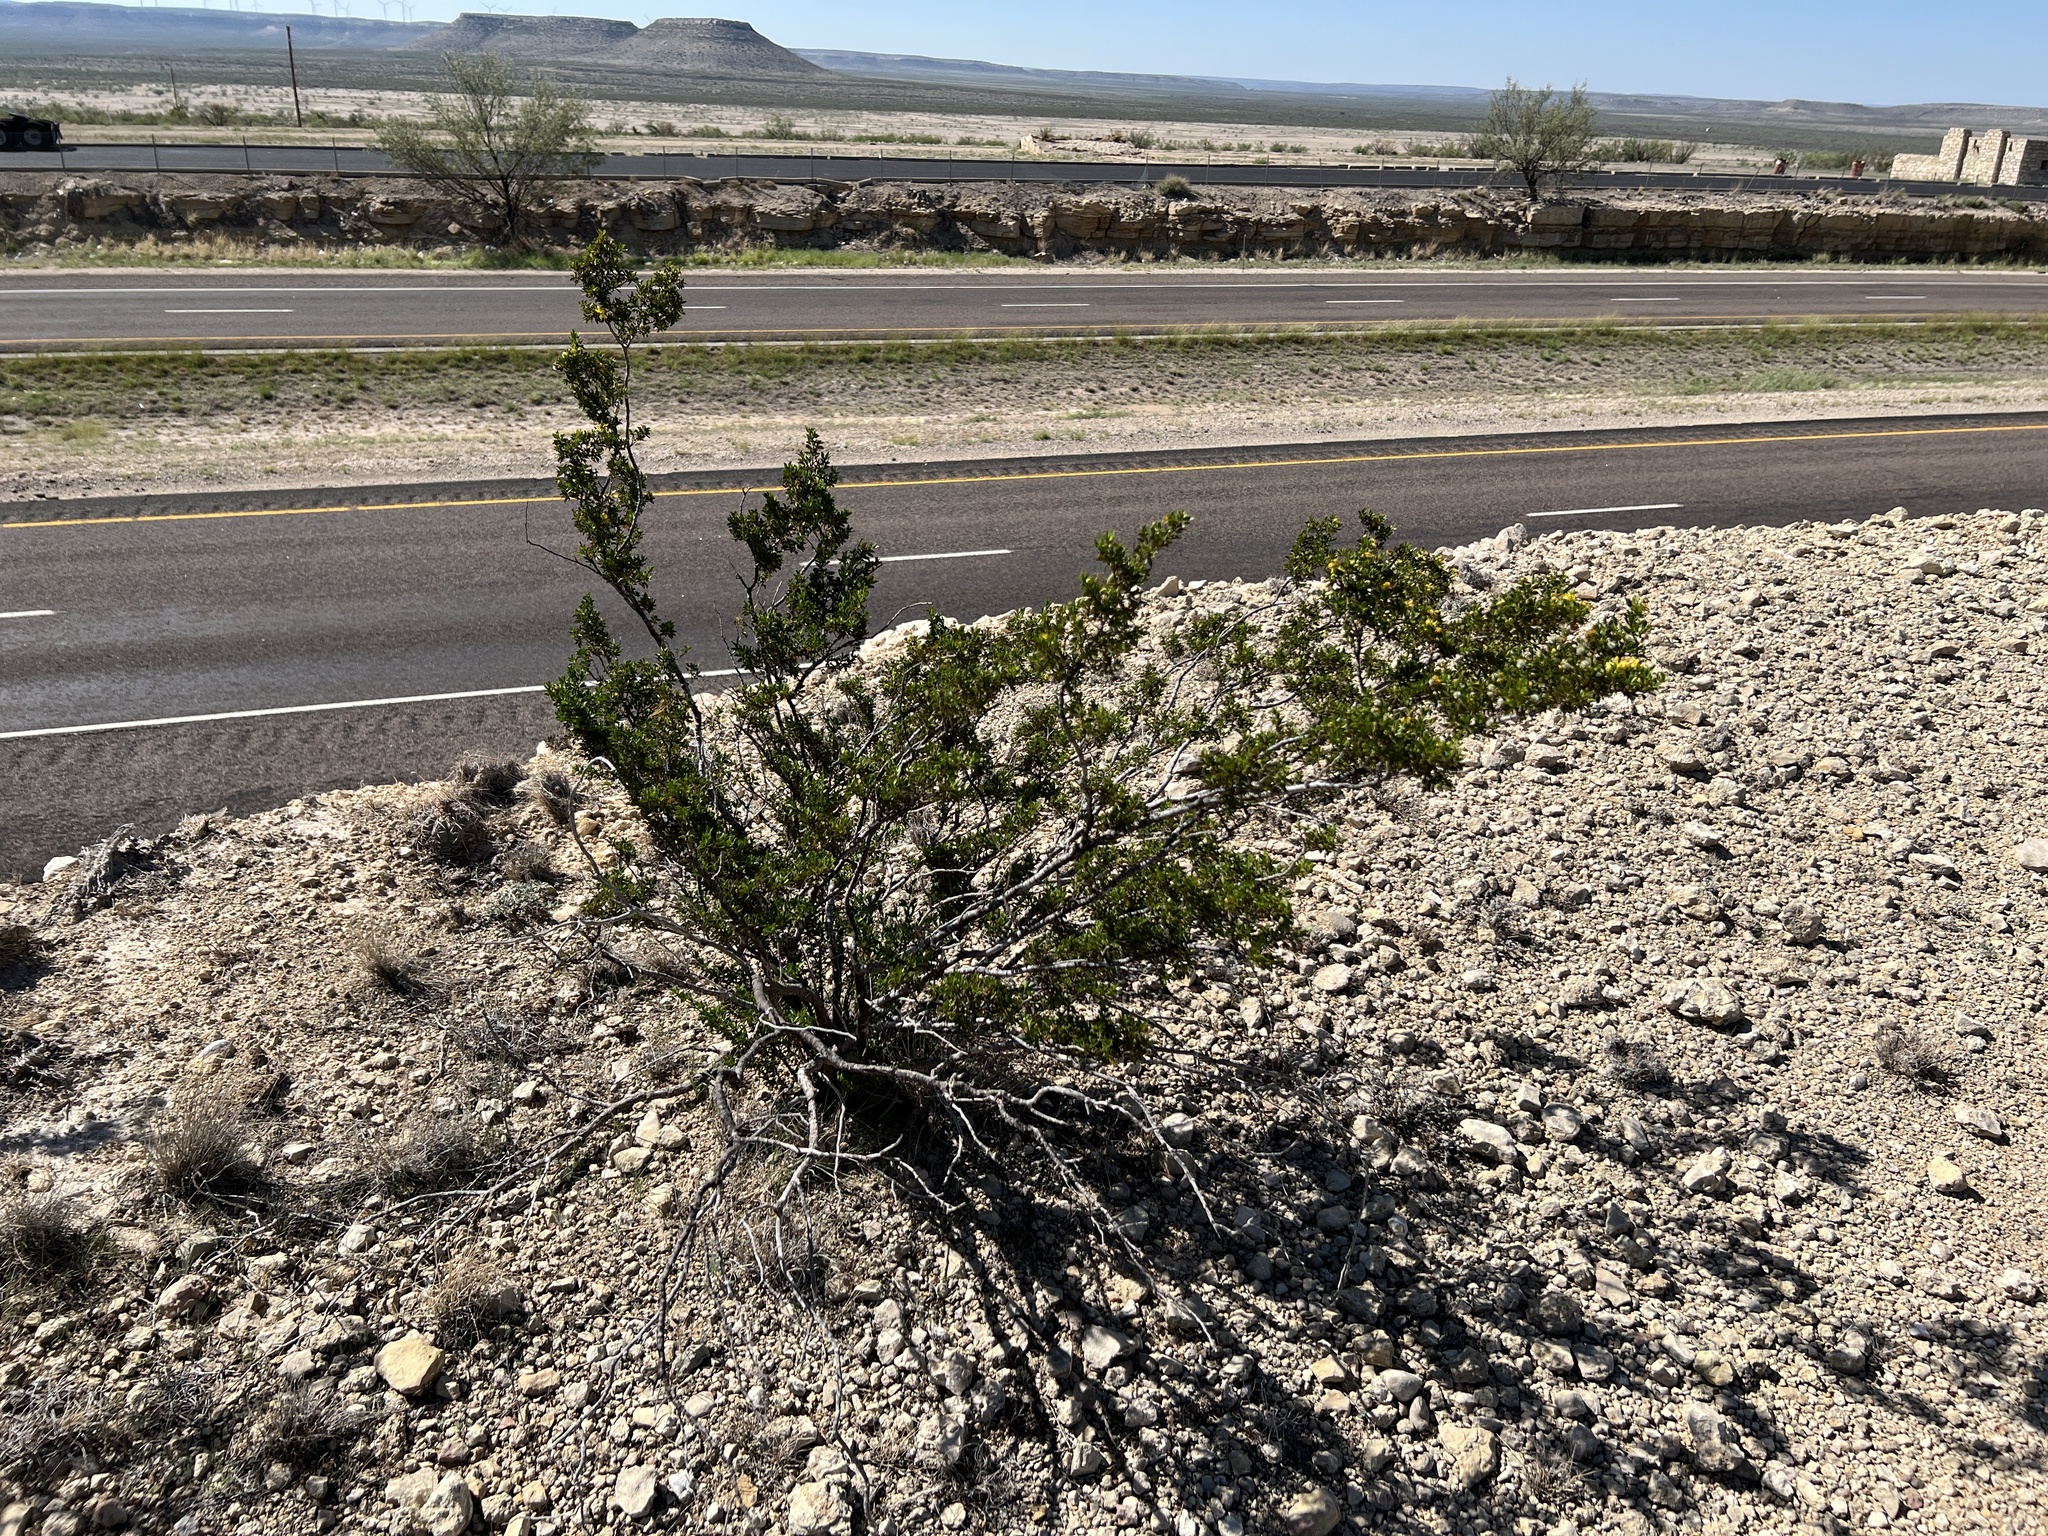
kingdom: Plantae
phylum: Tracheophyta
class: Magnoliopsida
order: Zygophyllales
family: Zygophyllaceae
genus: Larrea
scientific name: Larrea tridentata
